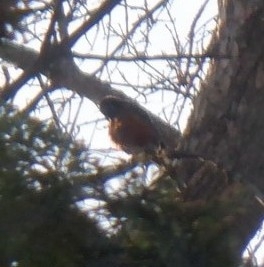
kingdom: Animalia
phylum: Chordata
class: Aves
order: Passeriformes
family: Turdidae
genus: Turdus
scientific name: Turdus migratorius
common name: American robin
